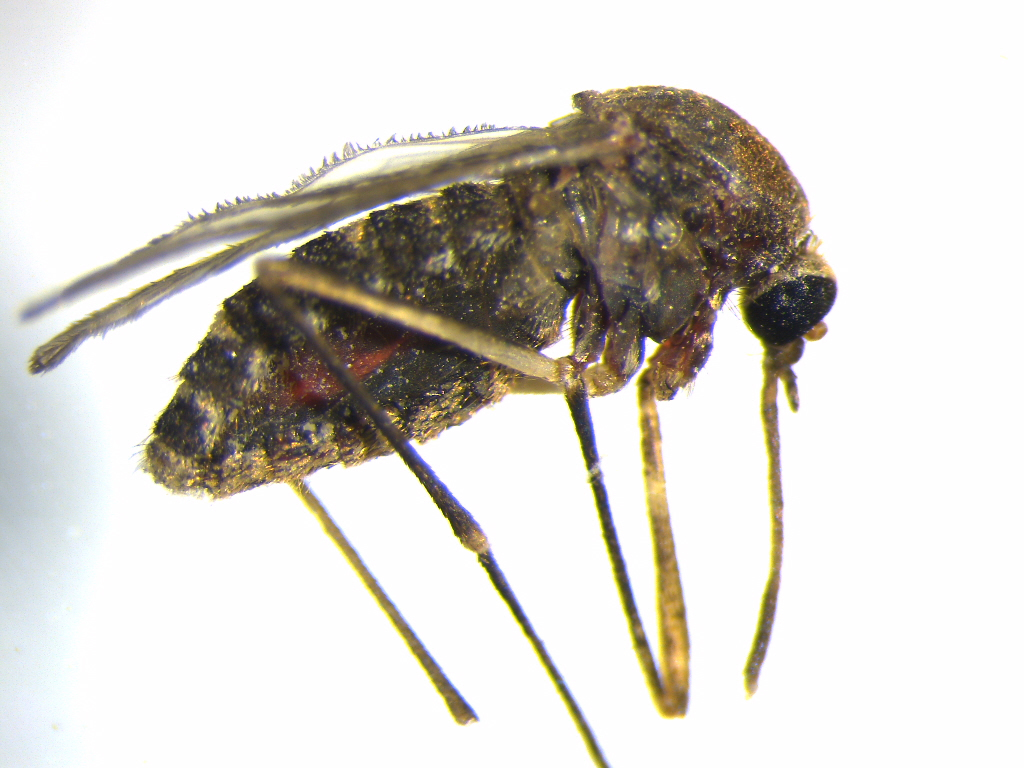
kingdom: Animalia
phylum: Arthropoda
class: Insecta
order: Diptera
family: Culicidae
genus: Culex
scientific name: Culex quinquefasciatus
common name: Southern house mosquito
